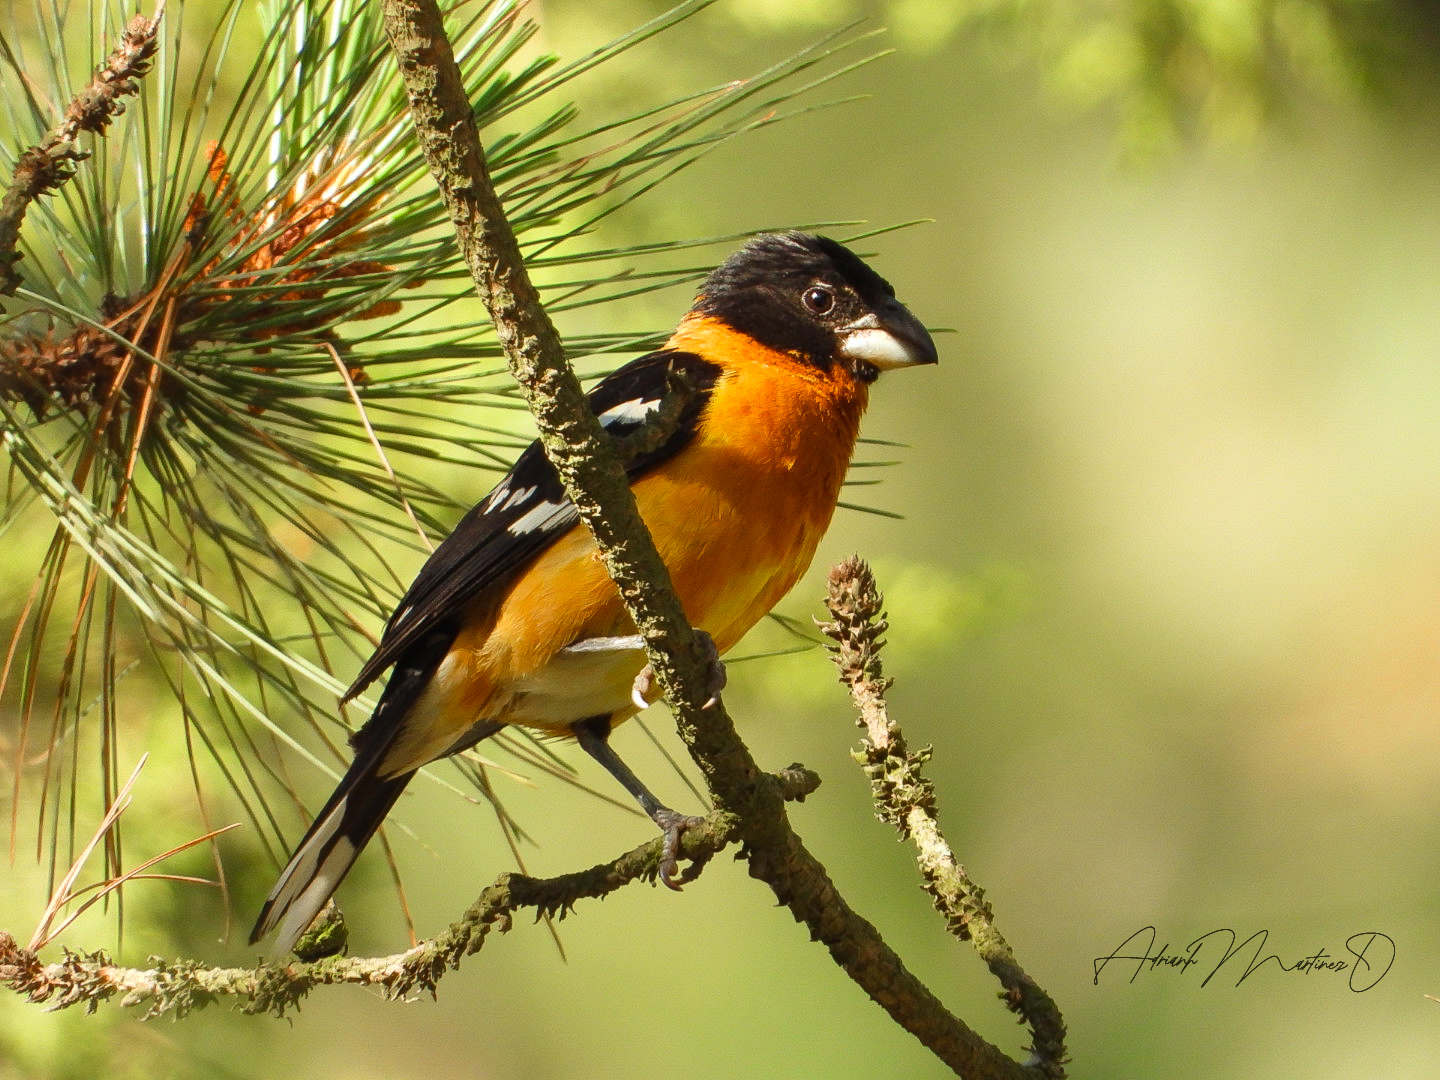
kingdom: Animalia
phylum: Chordata
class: Aves
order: Passeriformes
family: Cardinalidae
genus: Pheucticus
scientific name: Pheucticus melanocephalus
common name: Black-headed grosbeak
